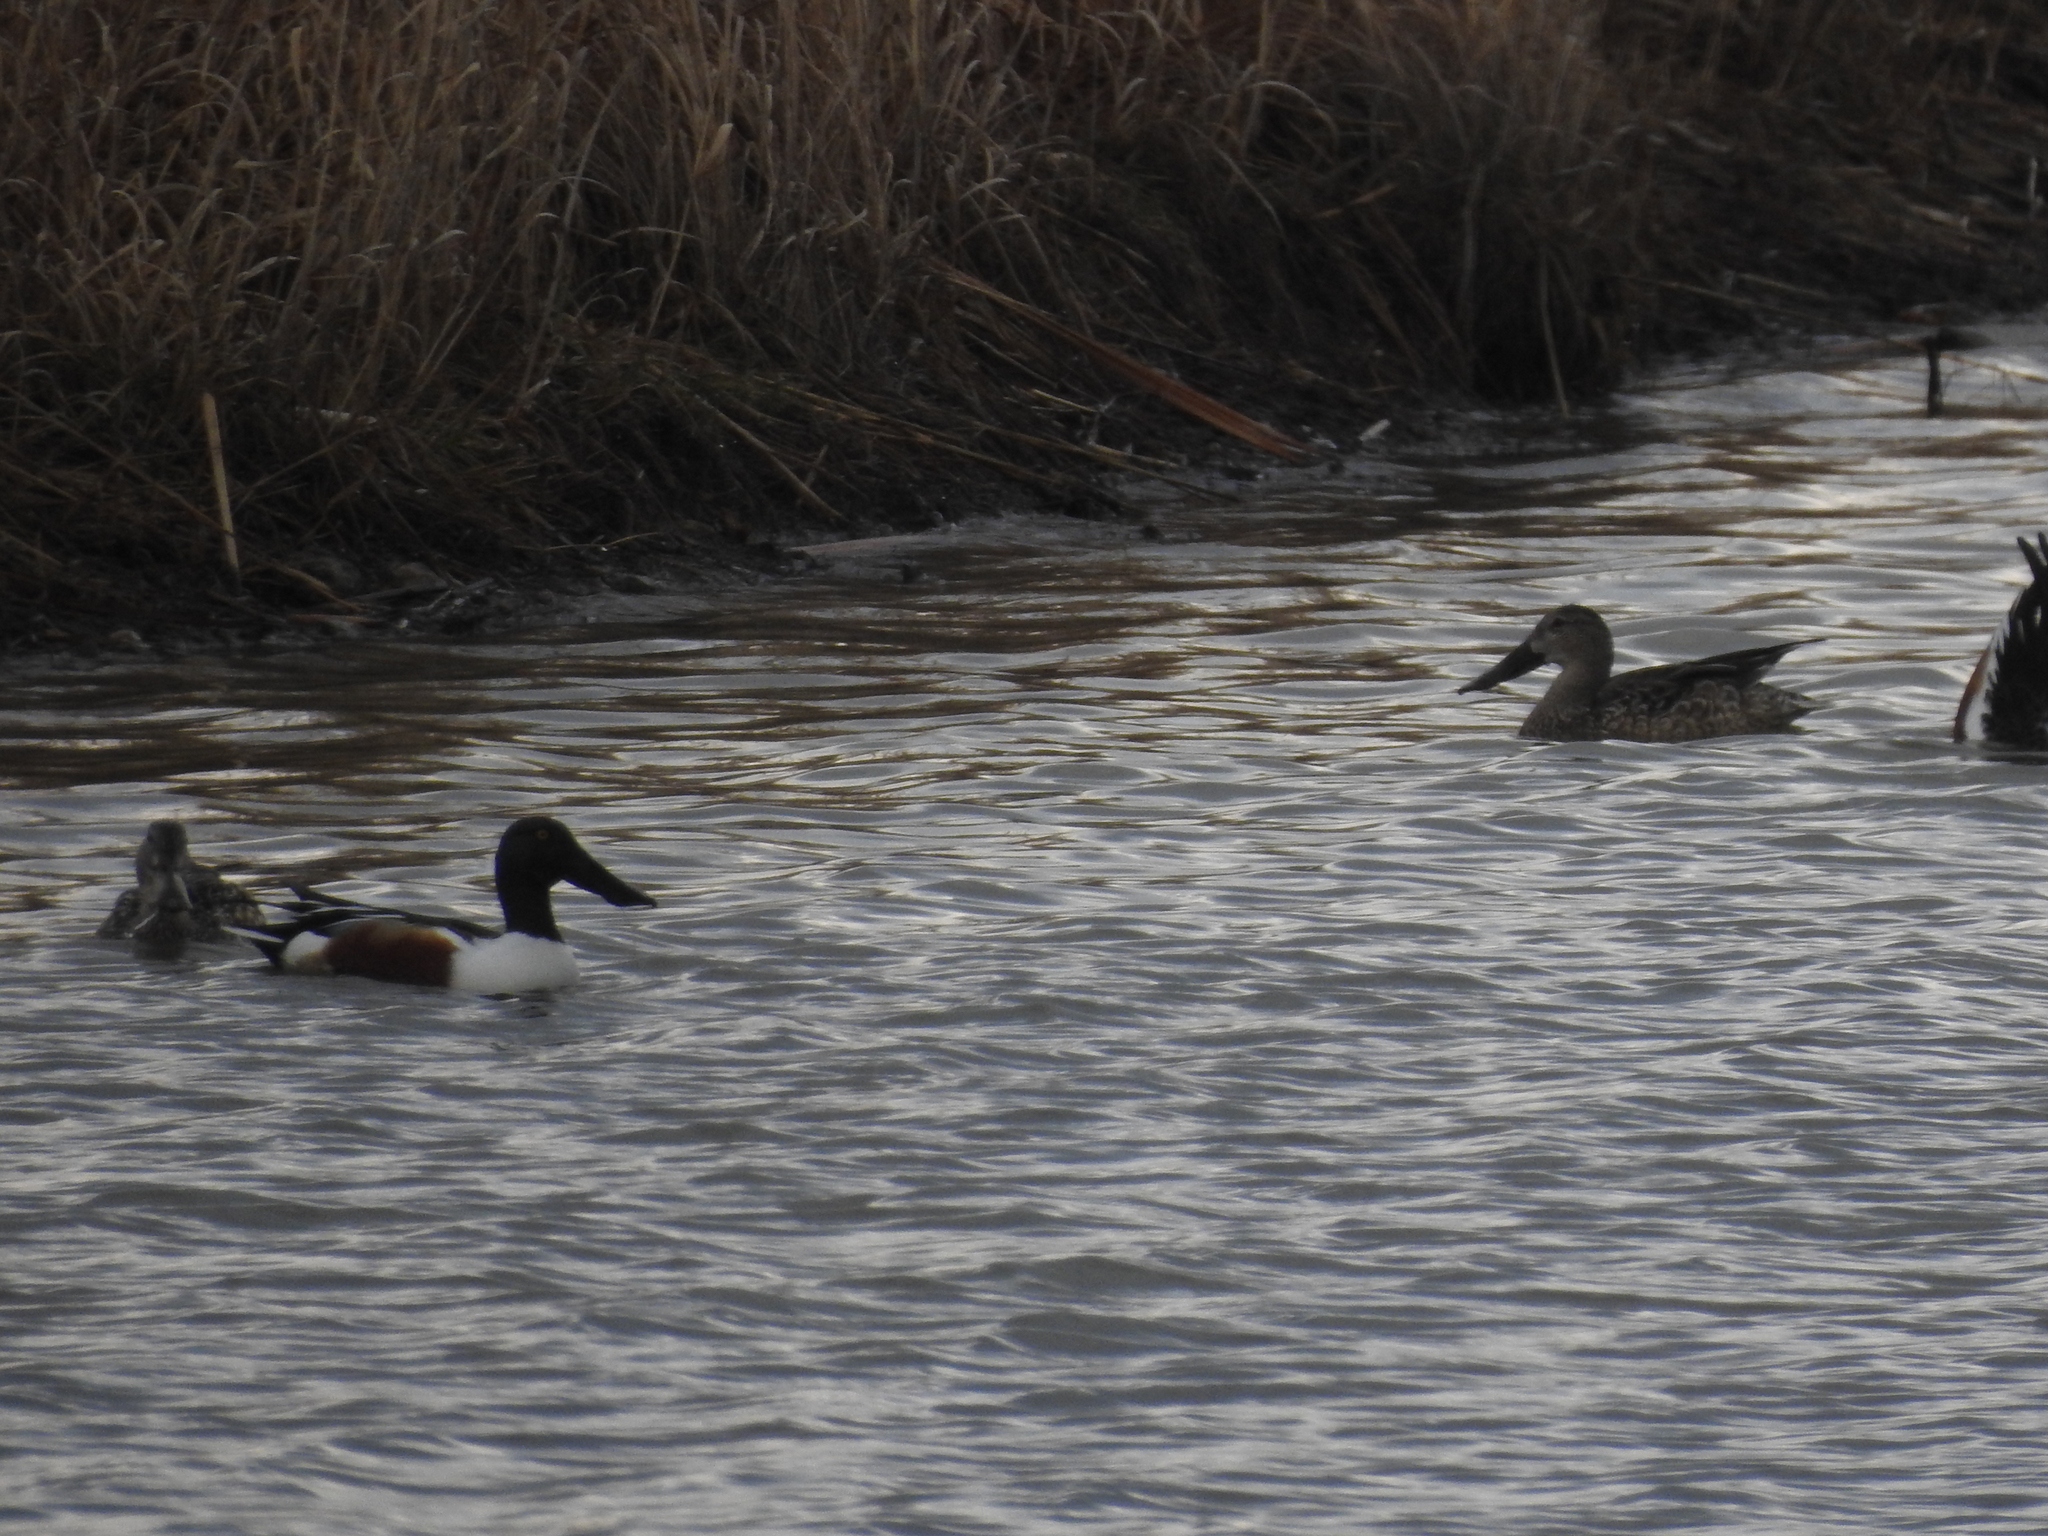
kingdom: Animalia
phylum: Chordata
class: Aves
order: Anseriformes
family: Anatidae
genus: Spatula
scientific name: Spatula clypeata
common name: Northern shoveler
